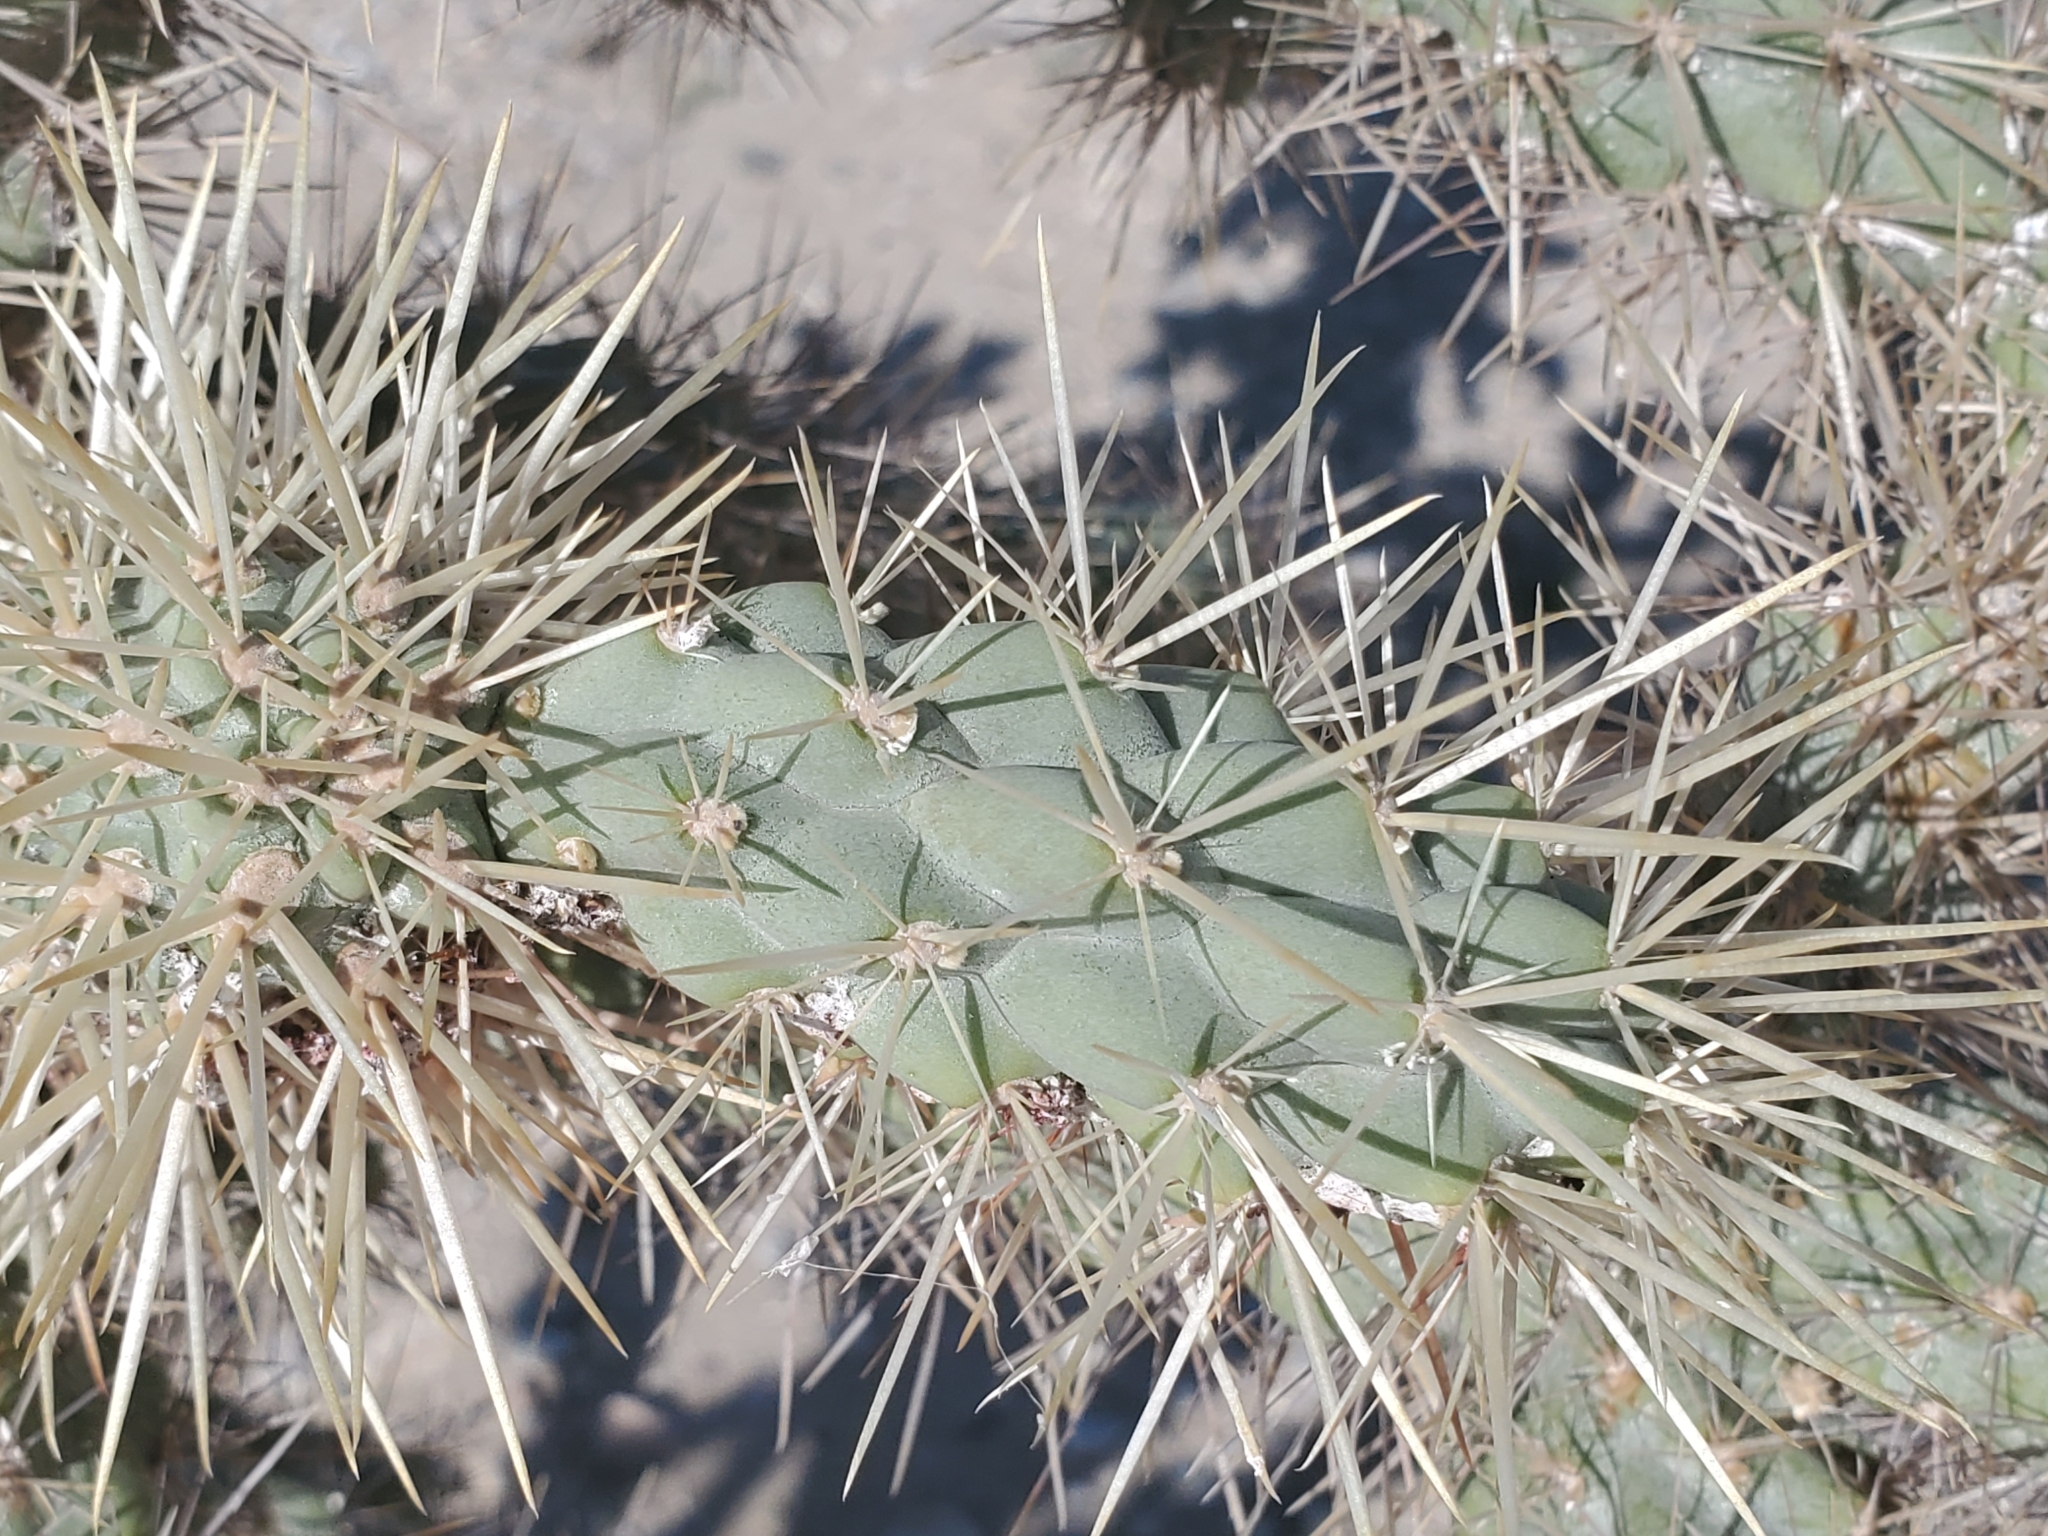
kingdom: Plantae
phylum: Tracheophyta
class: Magnoliopsida
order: Caryophyllales
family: Cactaceae
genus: Cylindropuntia
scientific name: Cylindropuntia munzii
